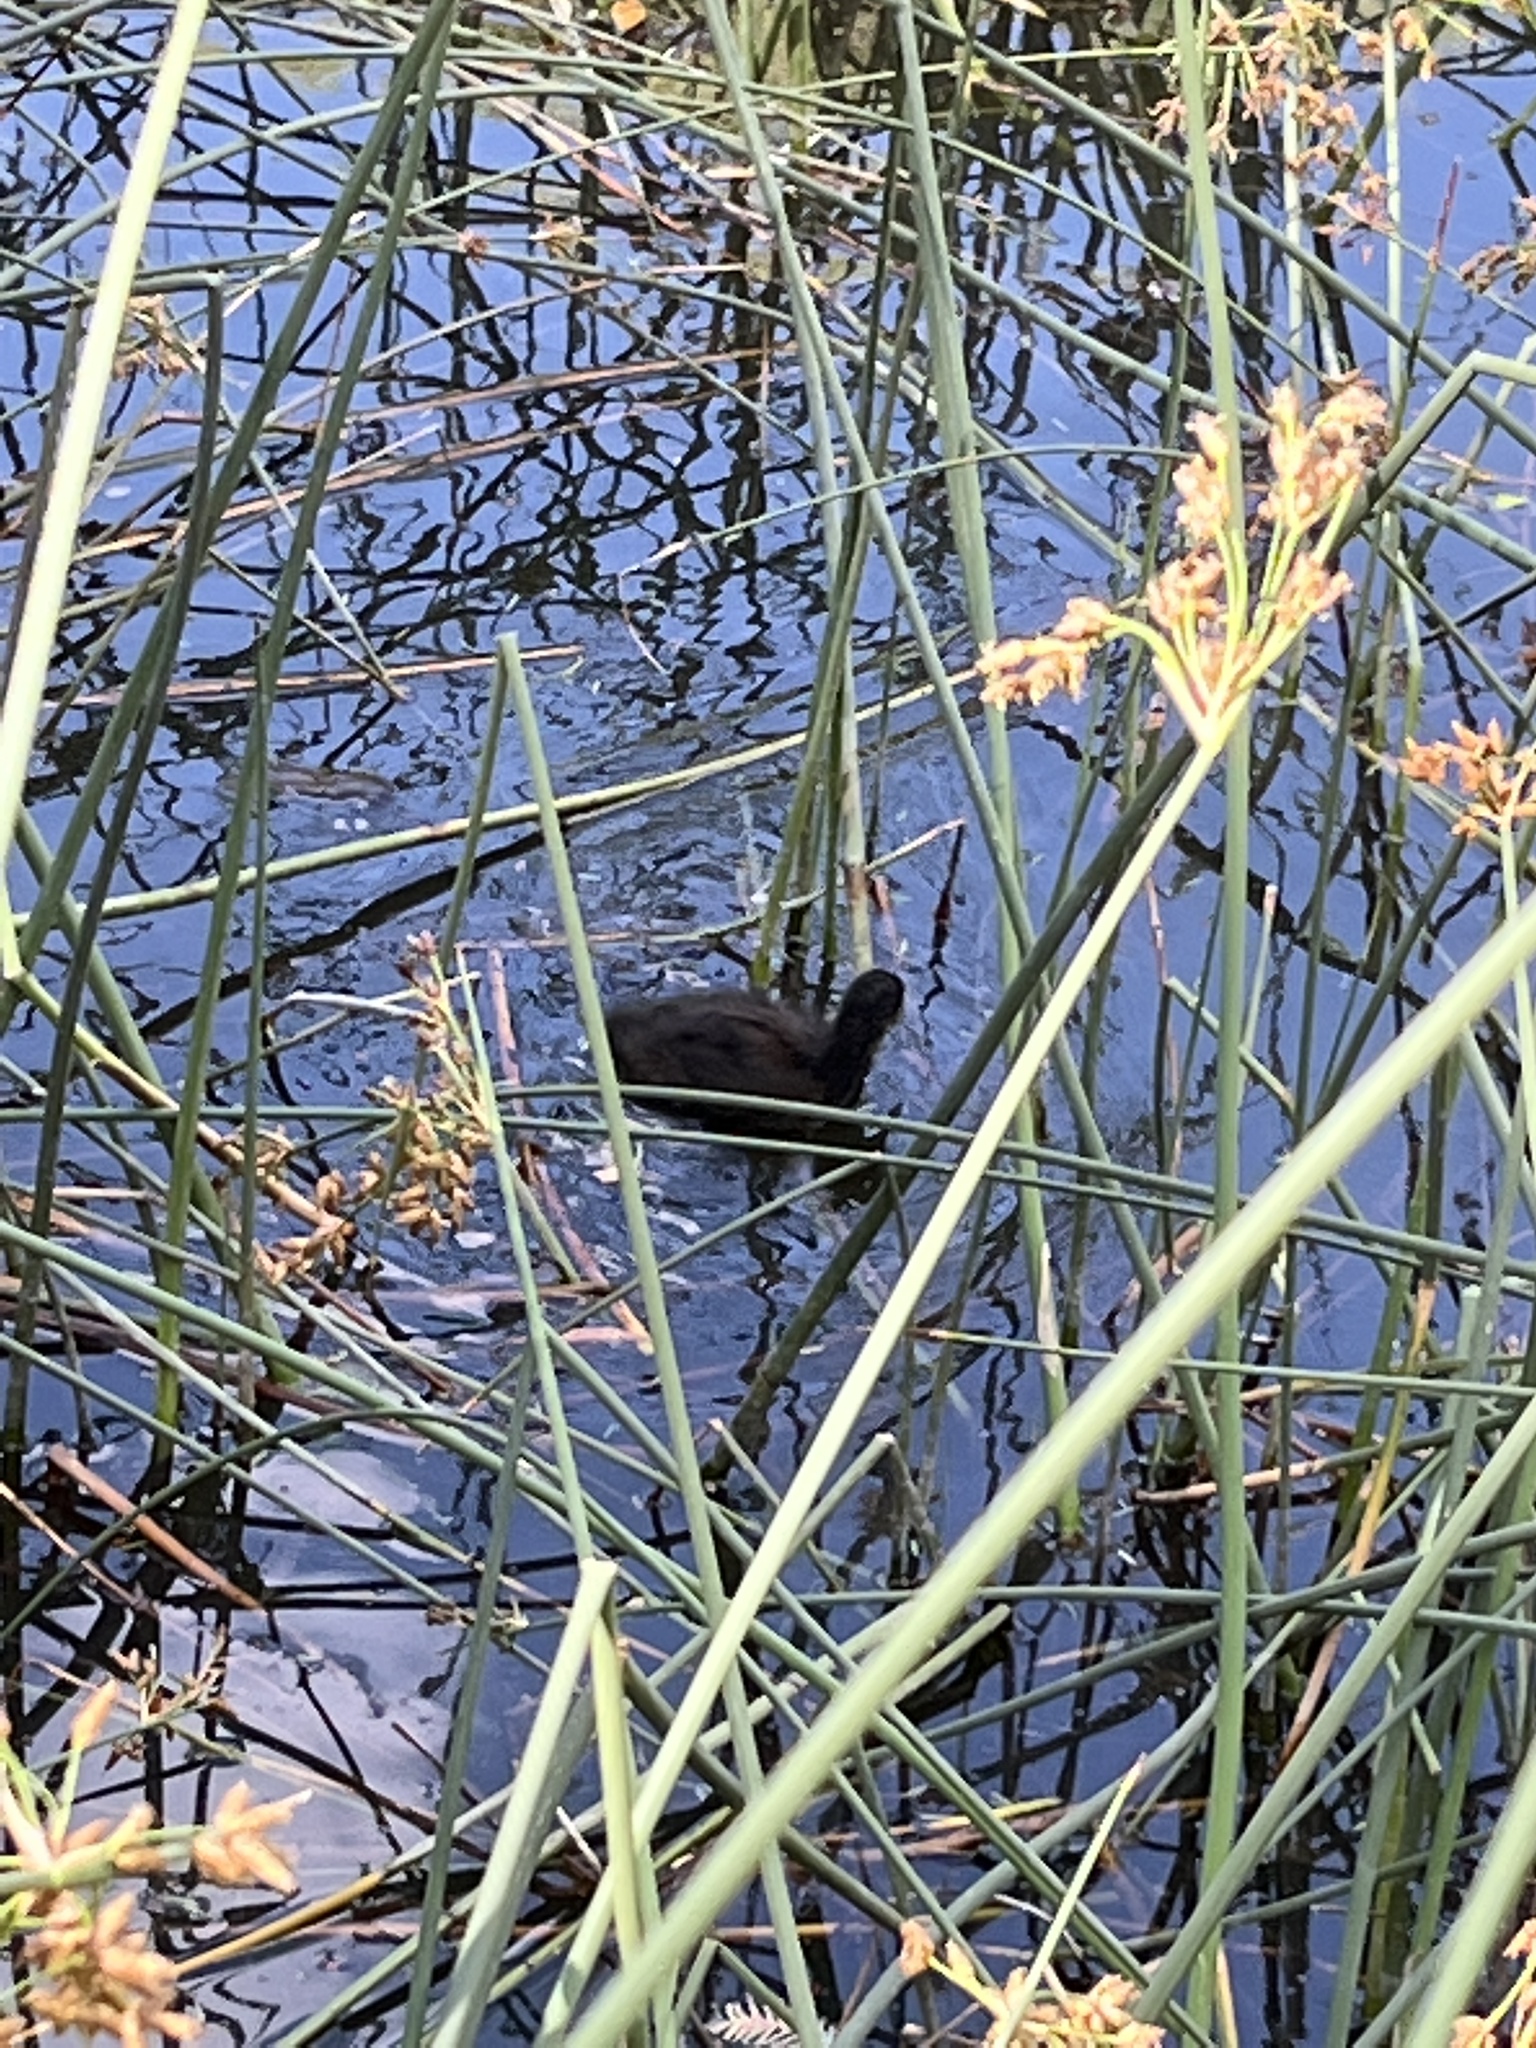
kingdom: Animalia
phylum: Chordata
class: Aves
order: Gruiformes
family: Rallidae
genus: Fulica
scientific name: Fulica atra
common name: Eurasian coot
